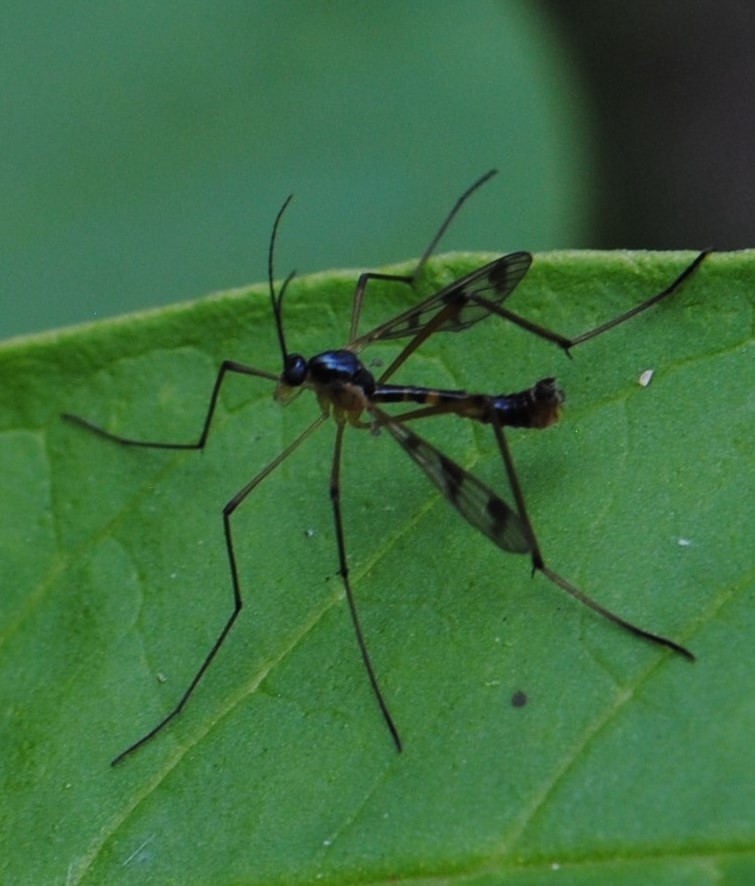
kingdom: Animalia
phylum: Arthropoda
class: Insecta
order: Diptera
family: Ptychopteridae
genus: Ptychoptera
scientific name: Ptychoptera quadrifasciata
